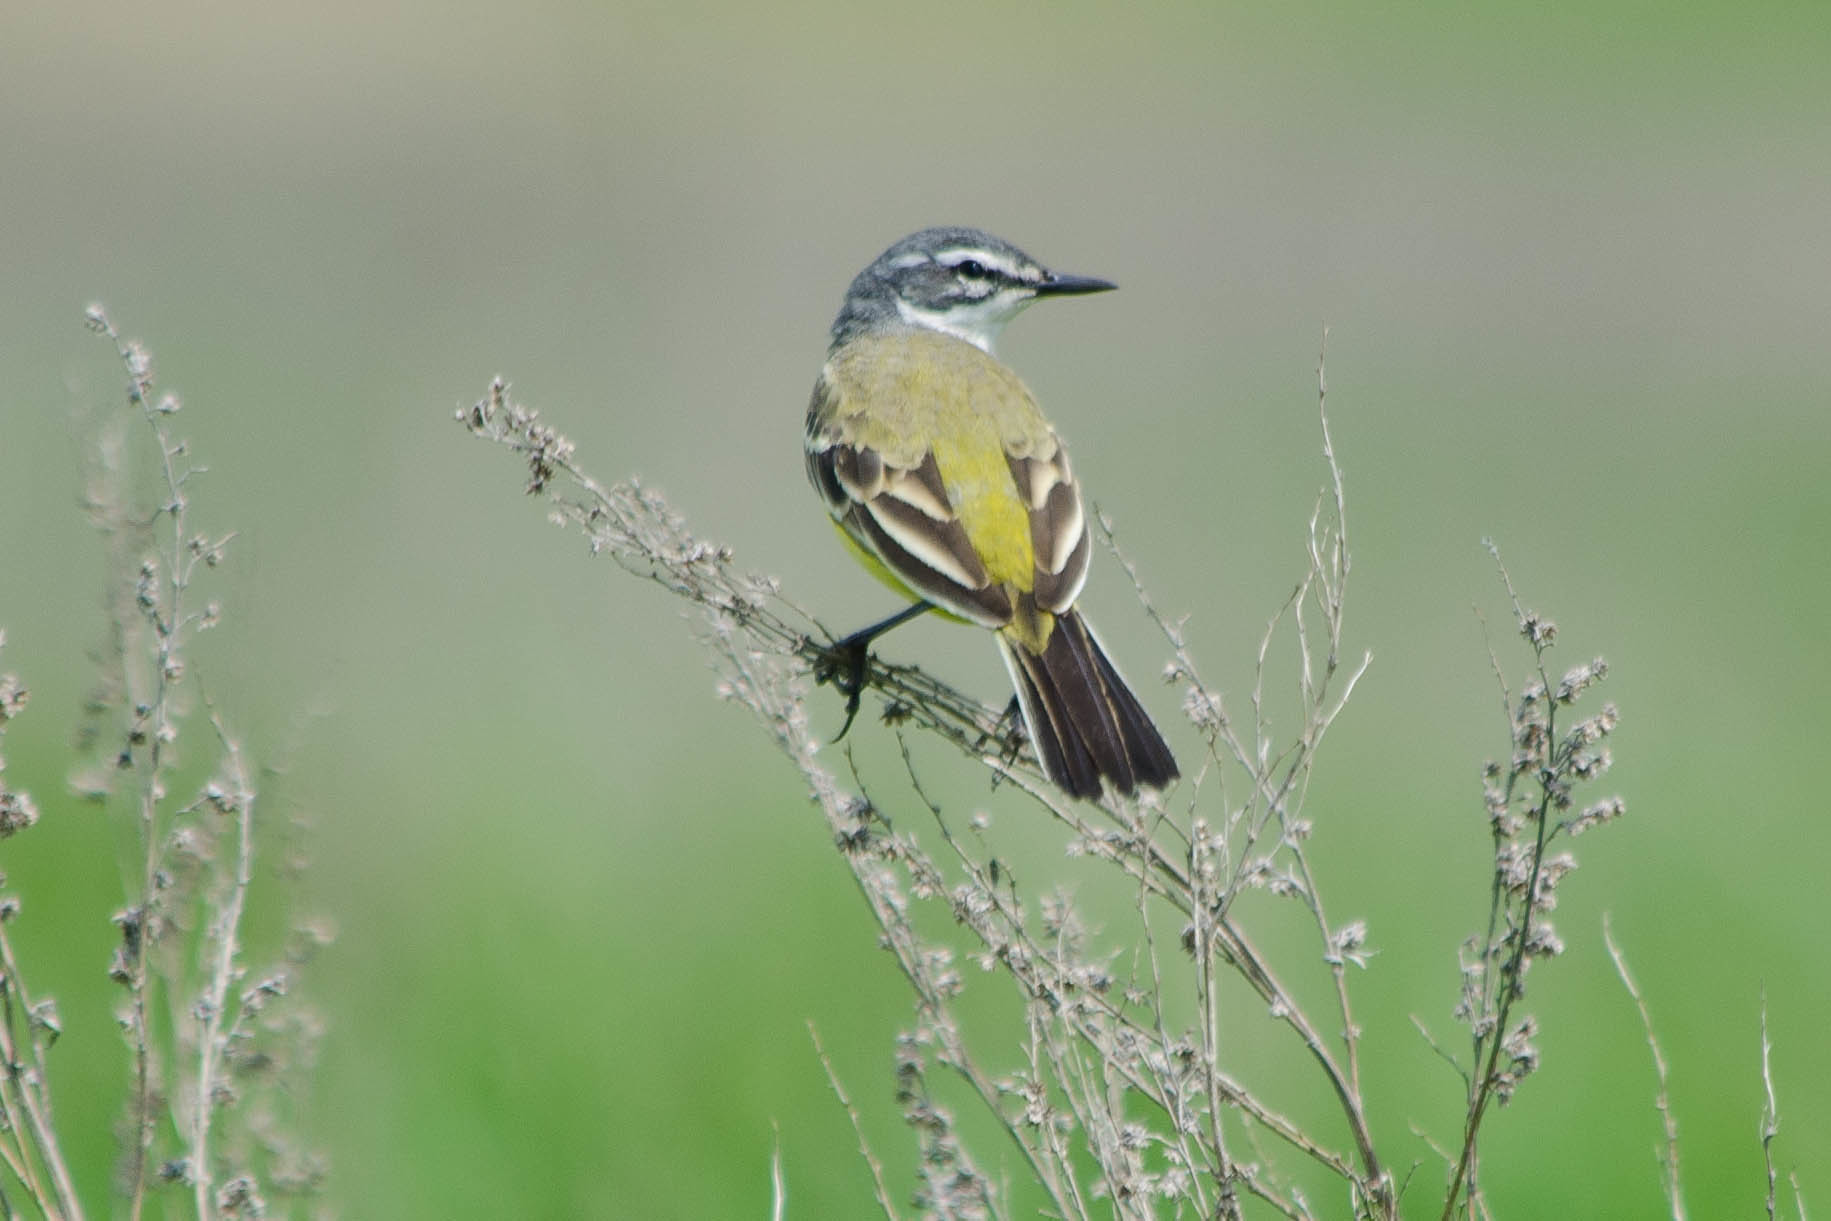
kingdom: Animalia
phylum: Chordata
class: Aves
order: Passeriformes
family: Motacillidae
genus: Motacilla
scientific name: Motacilla flava
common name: Western yellow wagtail
